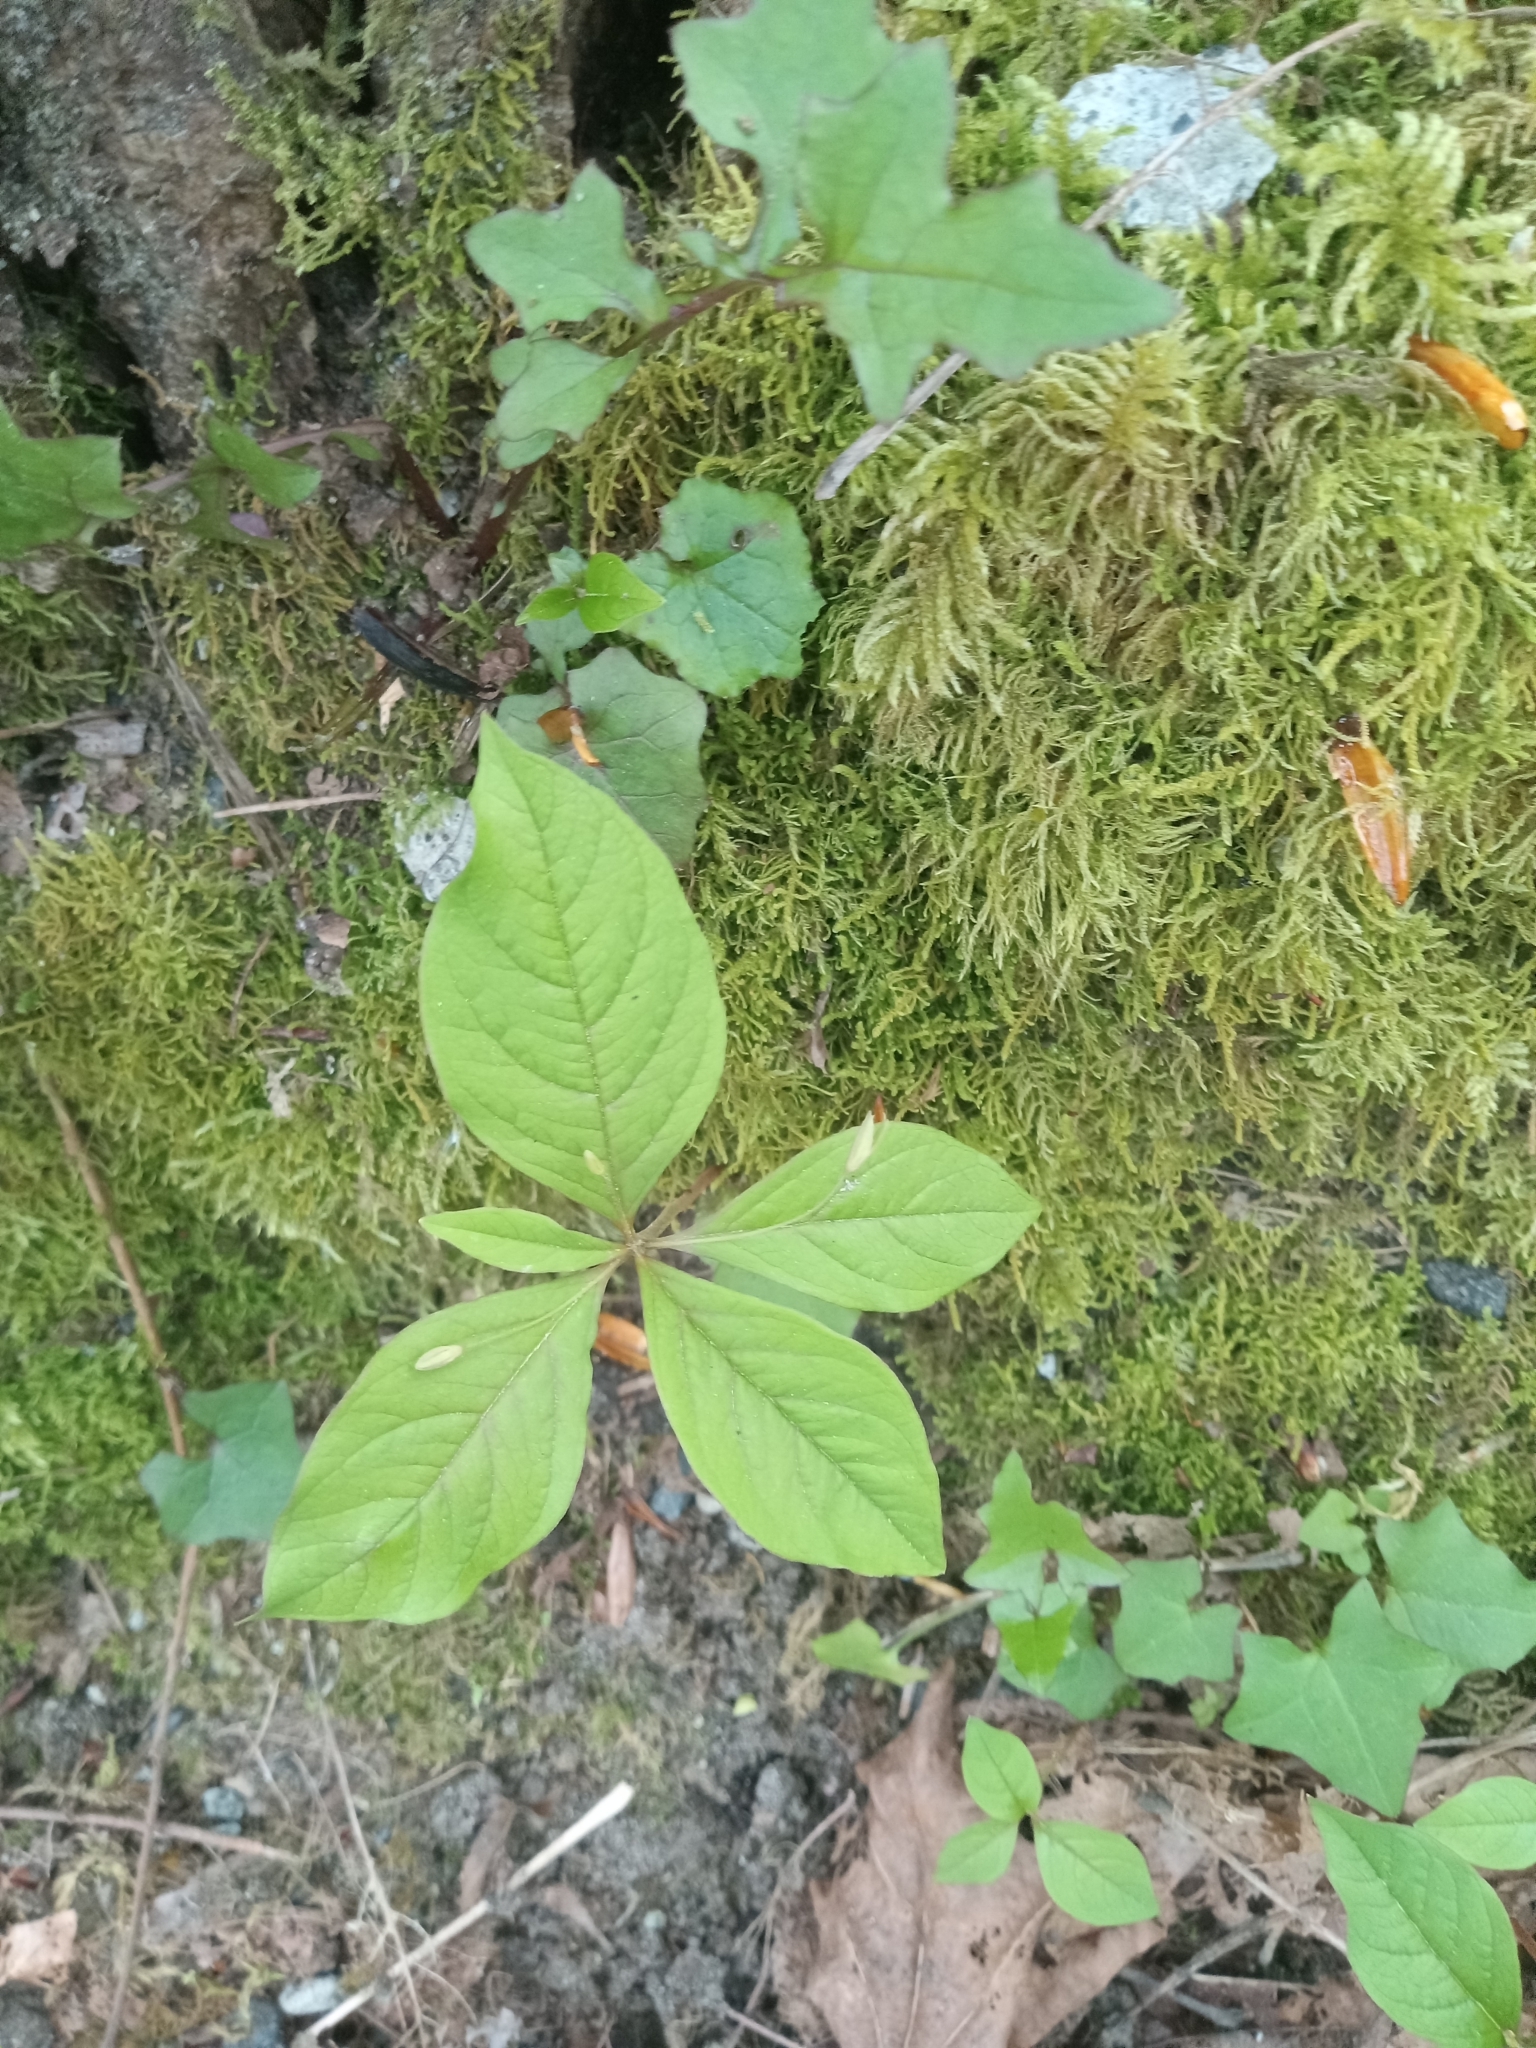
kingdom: Plantae
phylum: Tracheophyta
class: Magnoliopsida
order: Ericales
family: Primulaceae
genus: Lysimachia
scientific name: Lysimachia latifolia
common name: Pacific starflower
